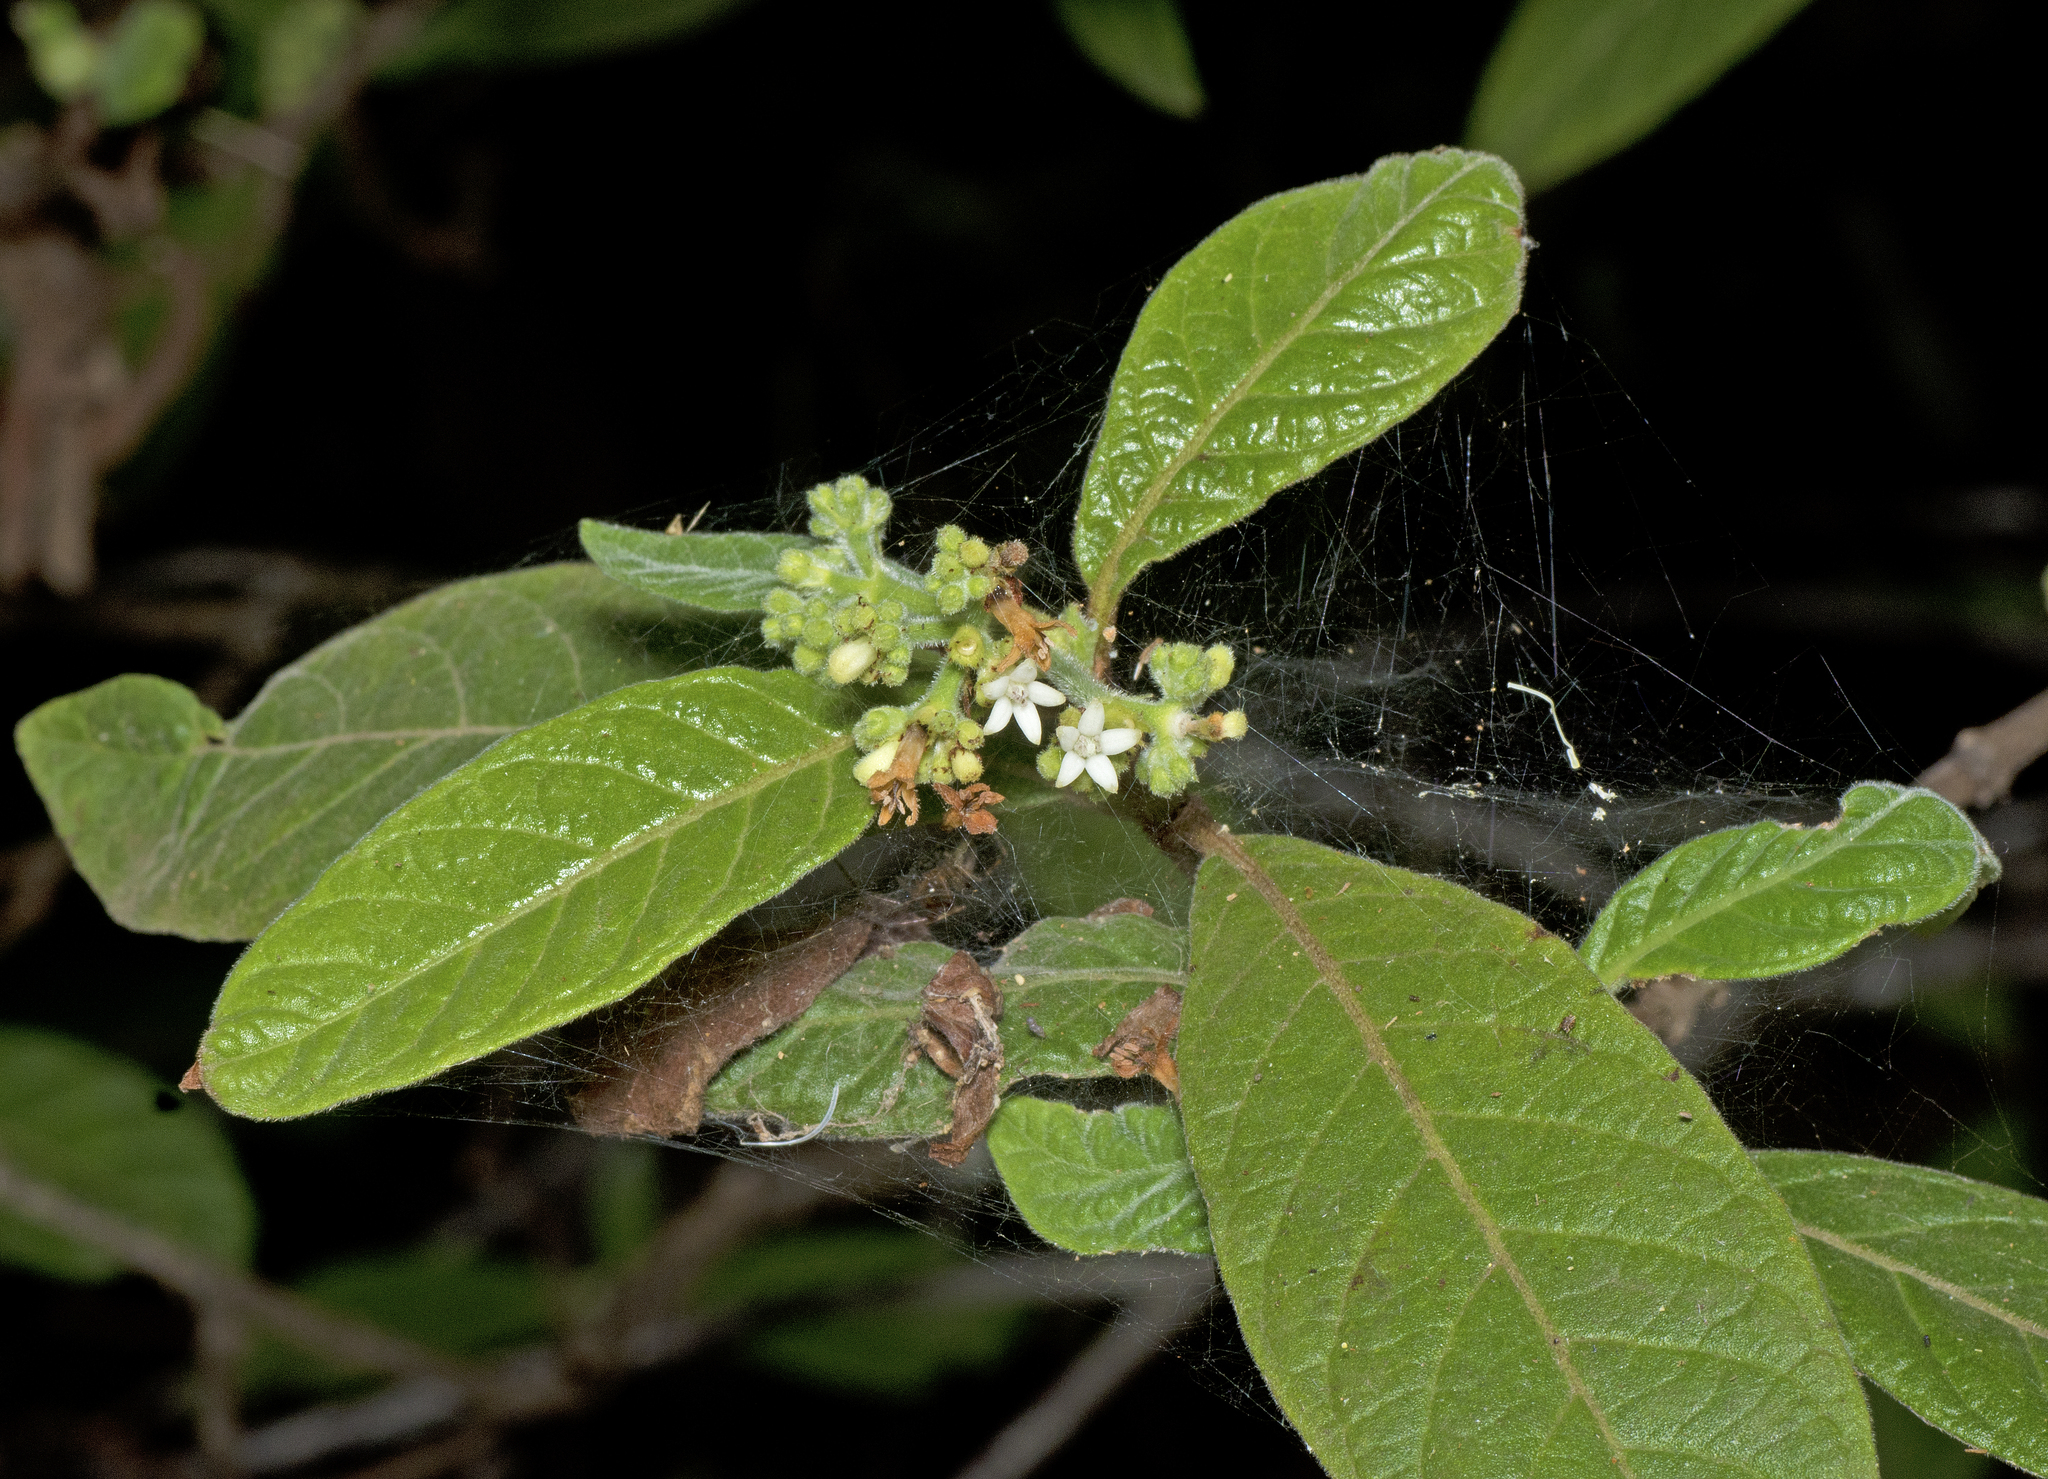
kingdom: Plantae
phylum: Tracheophyta
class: Magnoliopsida
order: Gentianales
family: Rubiaceae
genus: Psychotria
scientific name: Psychotria loniceroides
